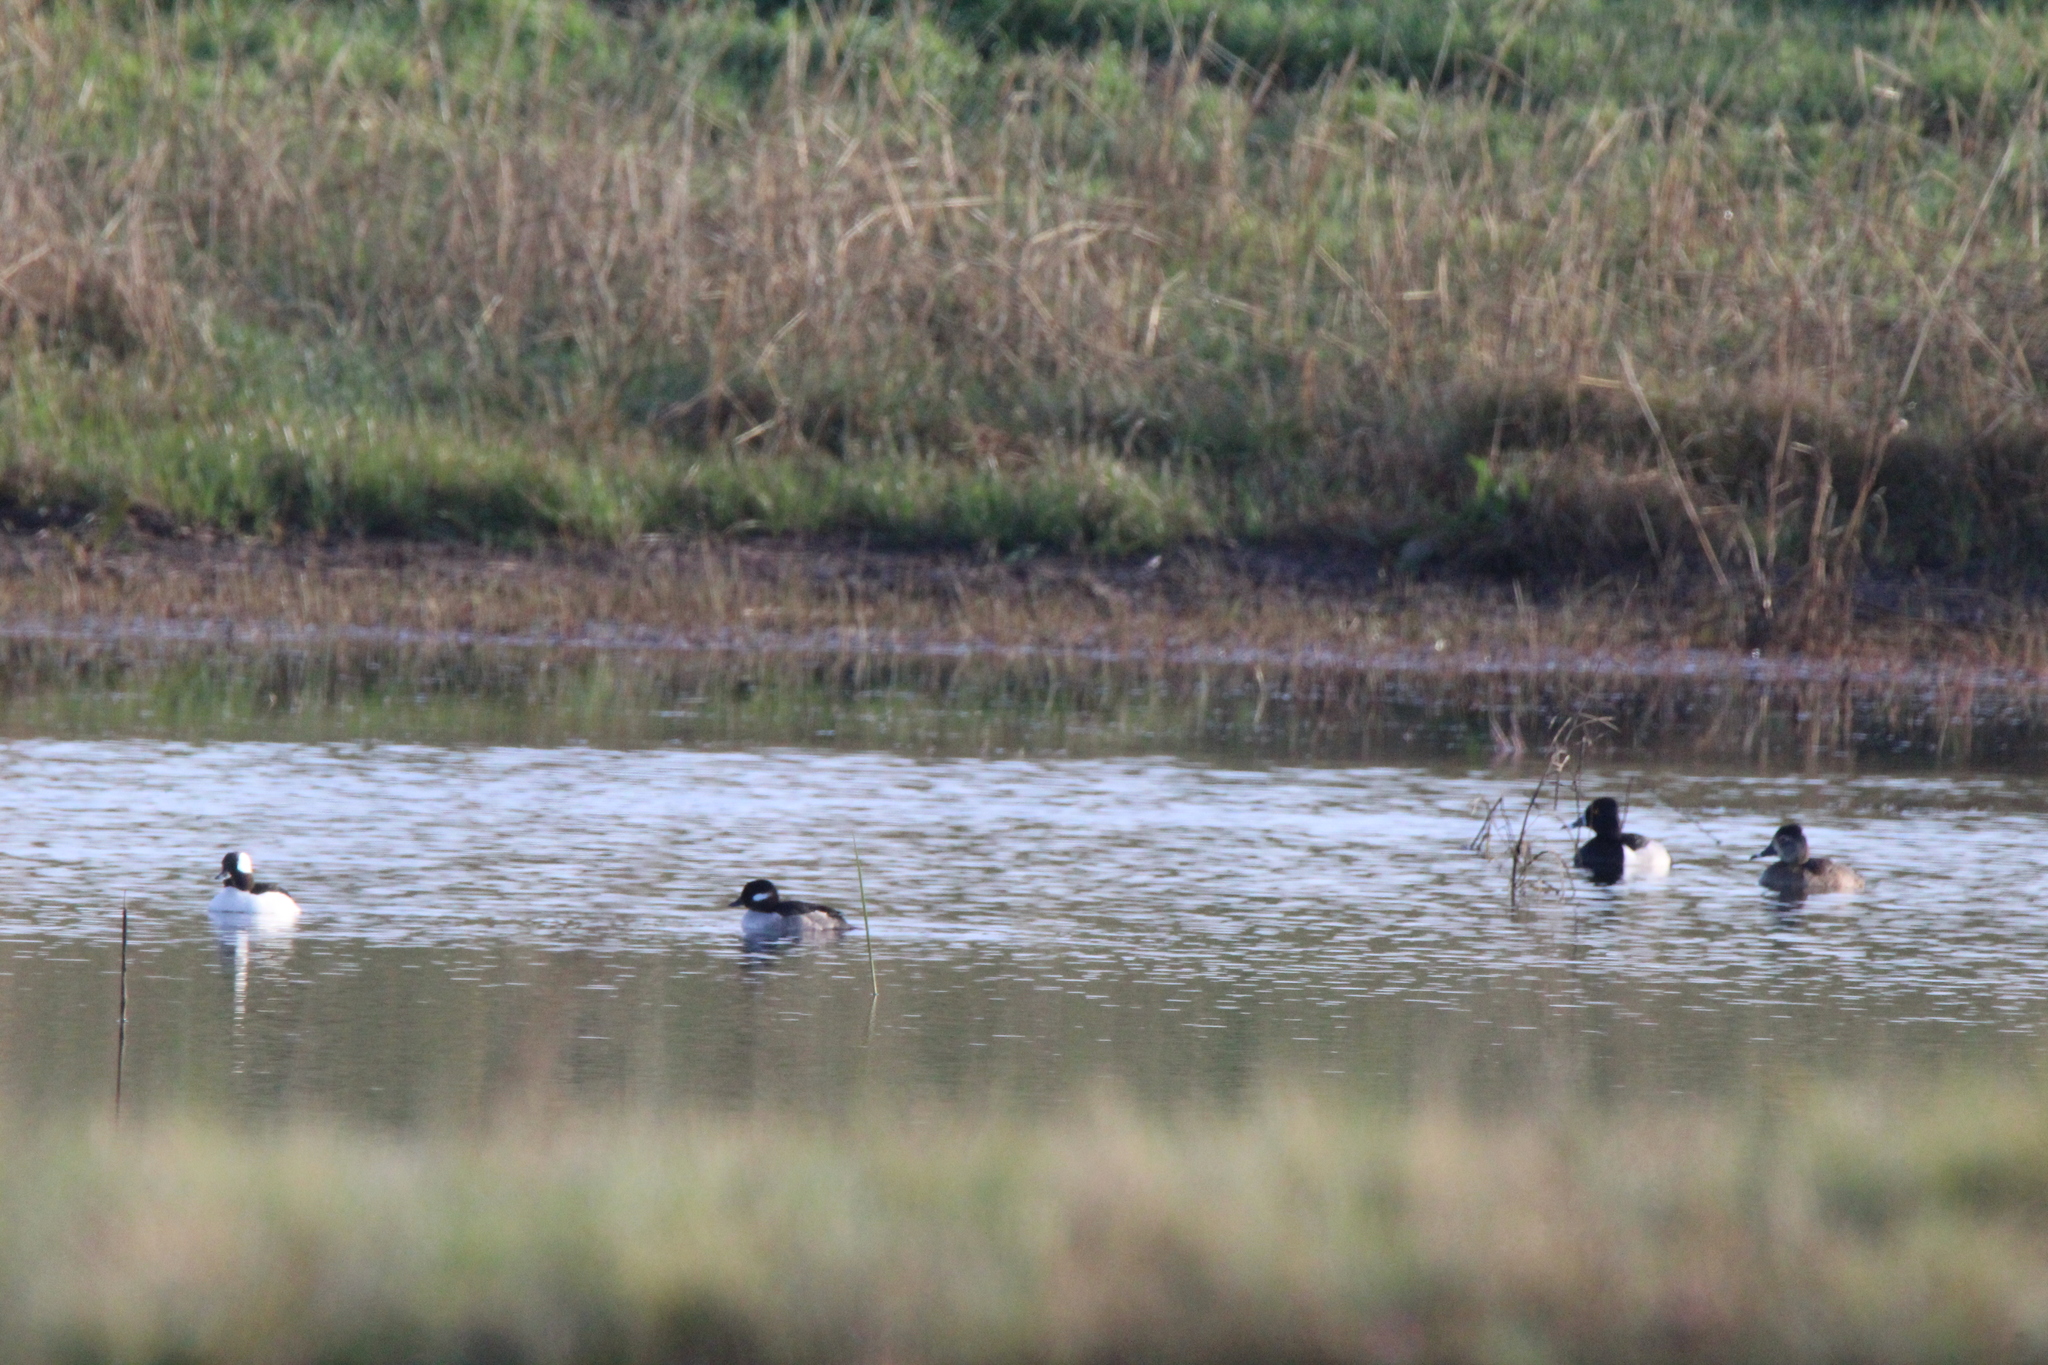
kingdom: Animalia
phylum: Chordata
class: Aves
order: Anseriformes
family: Anatidae
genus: Aythya
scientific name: Aythya collaris
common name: Ring-necked duck
